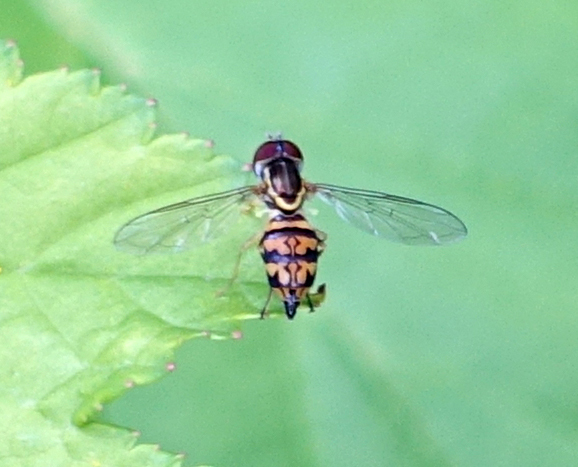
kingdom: Animalia
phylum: Arthropoda
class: Insecta
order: Diptera
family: Syrphidae
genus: Toxomerus
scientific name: Toxomerus geminatus
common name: Eastern calligrapher
